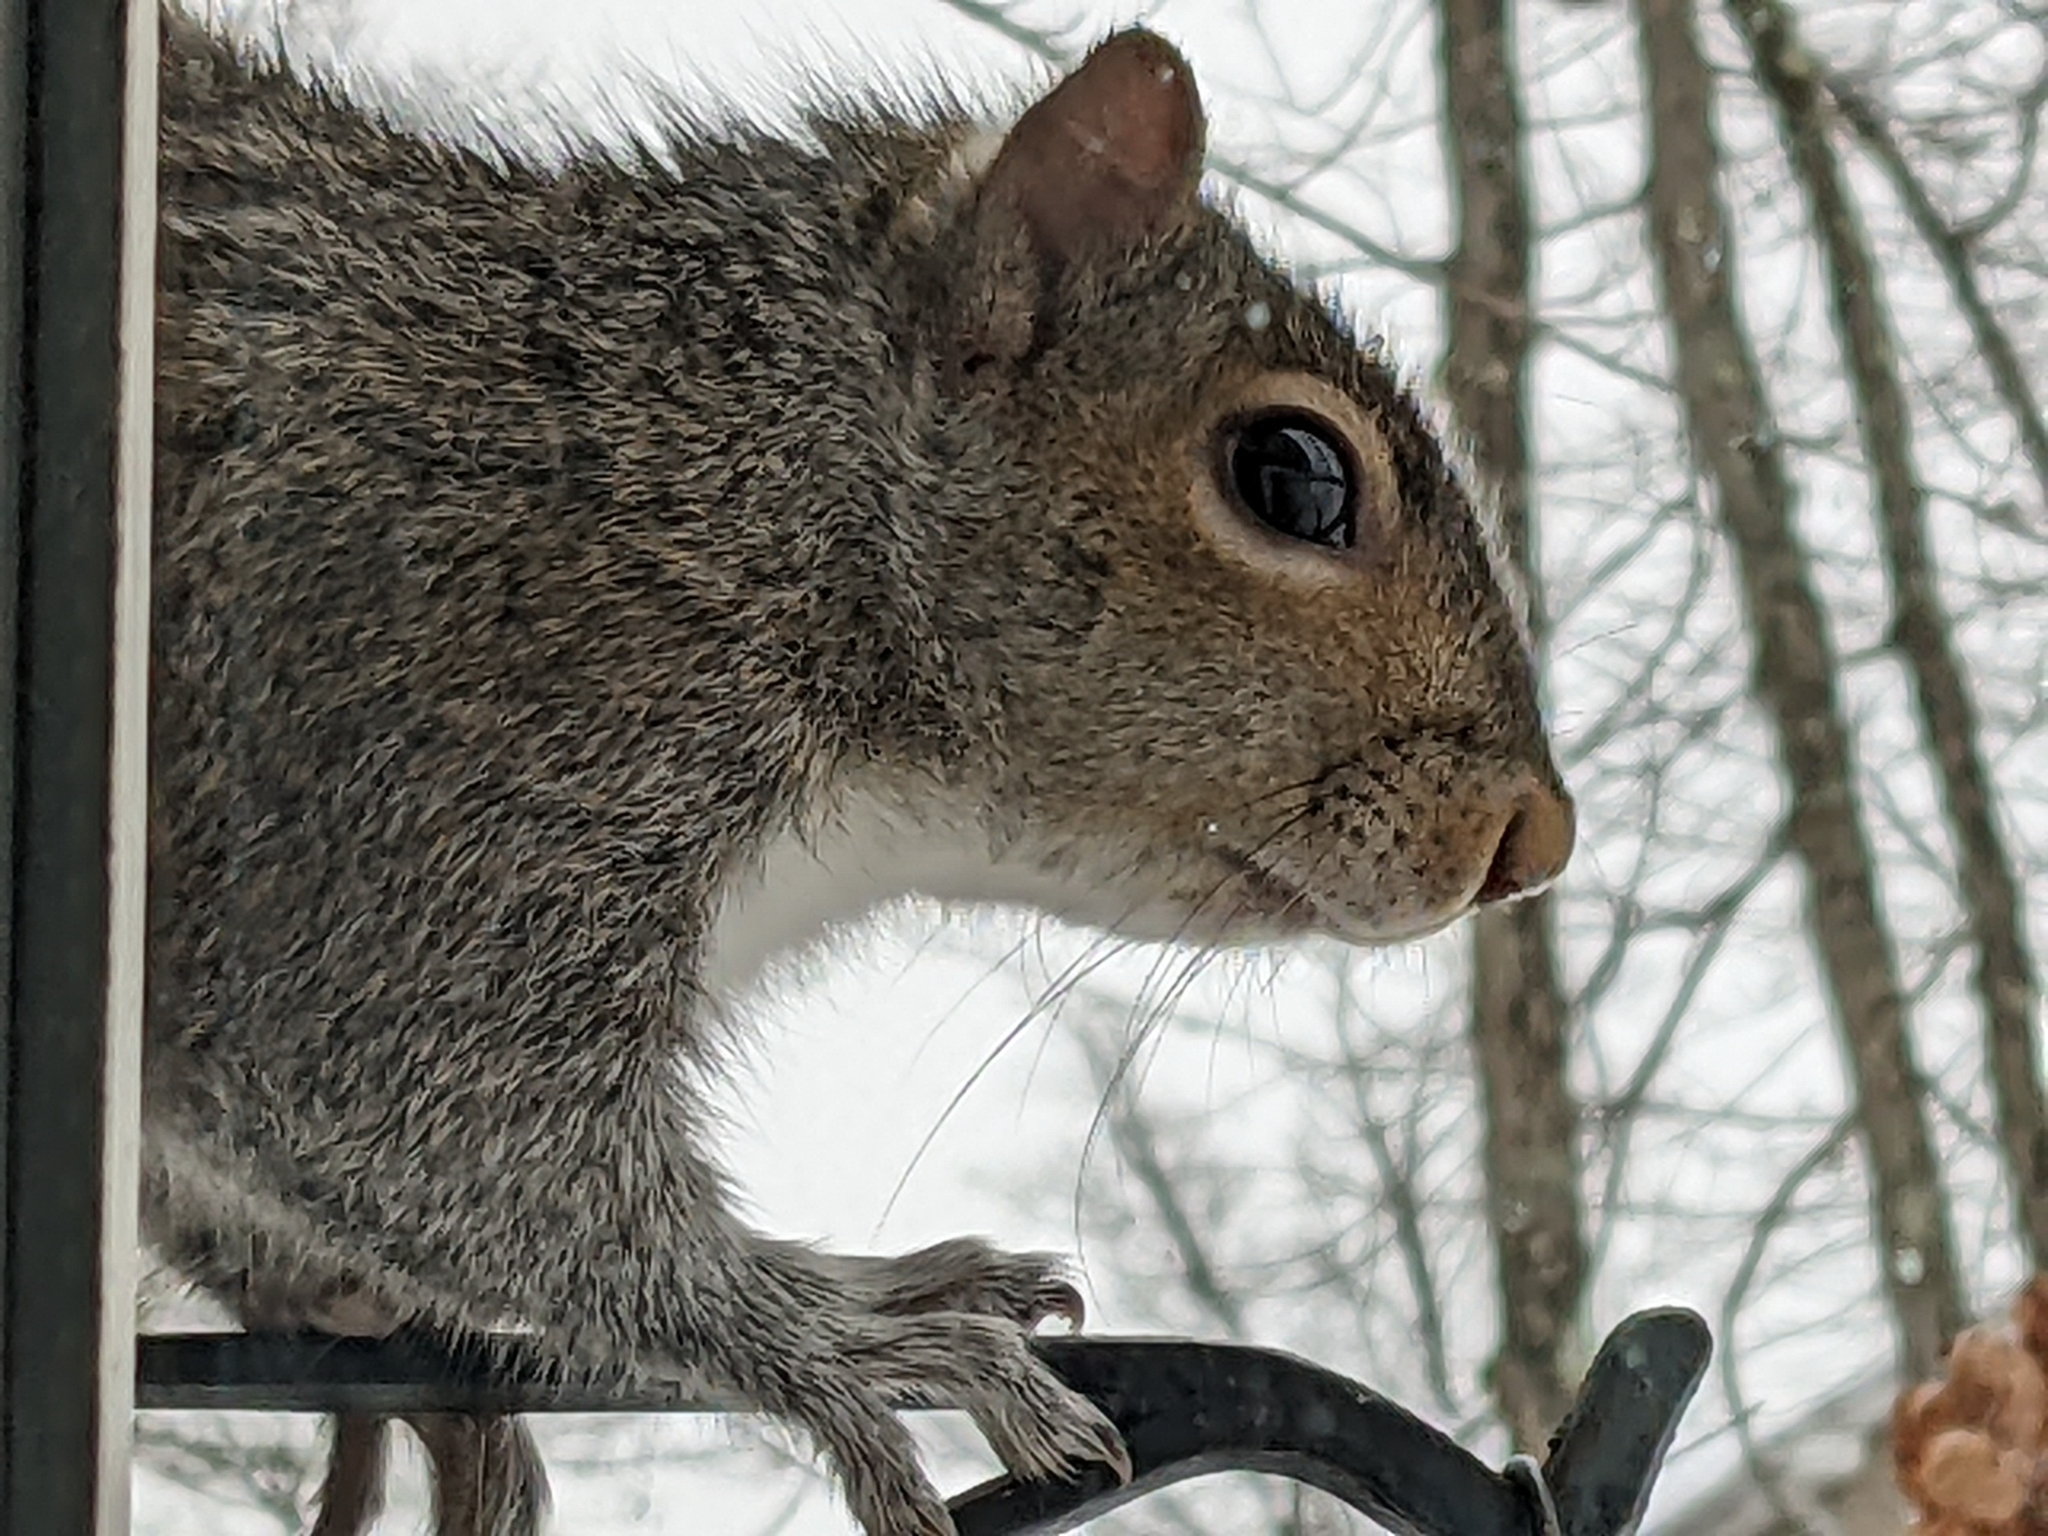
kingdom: Animalia
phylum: Chordata
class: Mammalia
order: Rodentia
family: Sciuridae
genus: Sciurus
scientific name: Sciurus carolinensis
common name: Eastern gray squirrel
